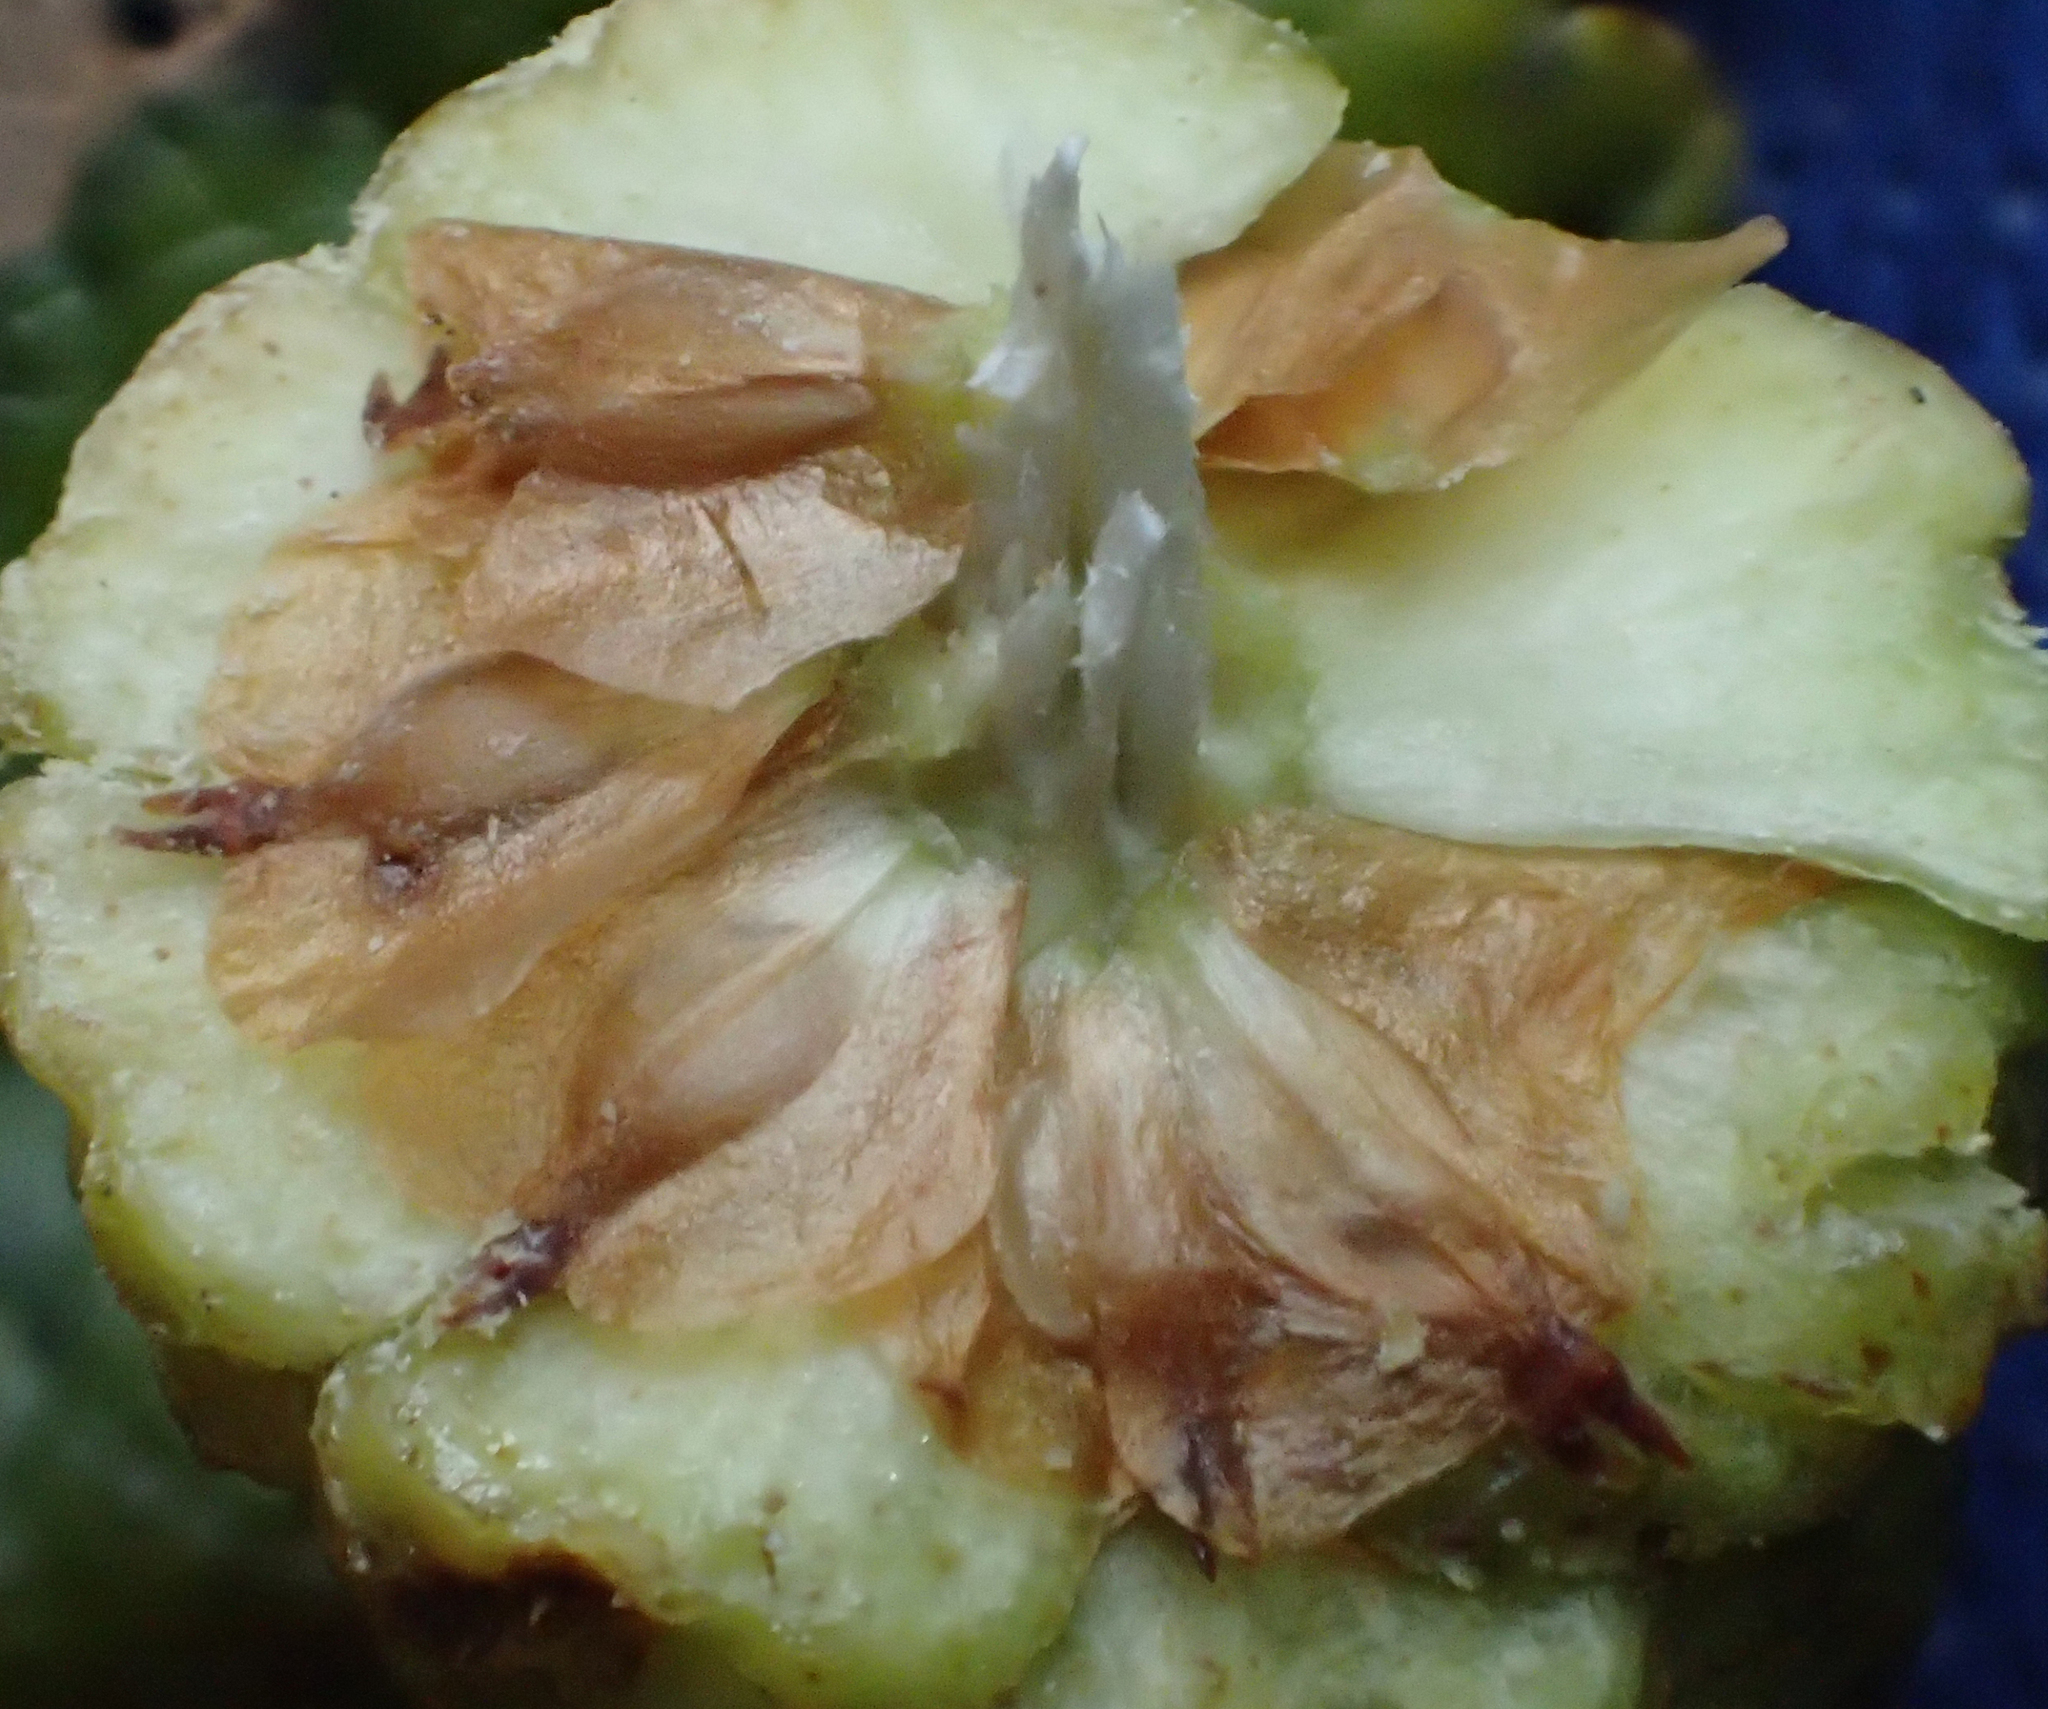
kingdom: Plantae
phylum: Tracheophyta
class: Magnoliopsida
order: Fagales
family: Betulaceae
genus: Alnus
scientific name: Alnus alnobetula
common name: Green alder
